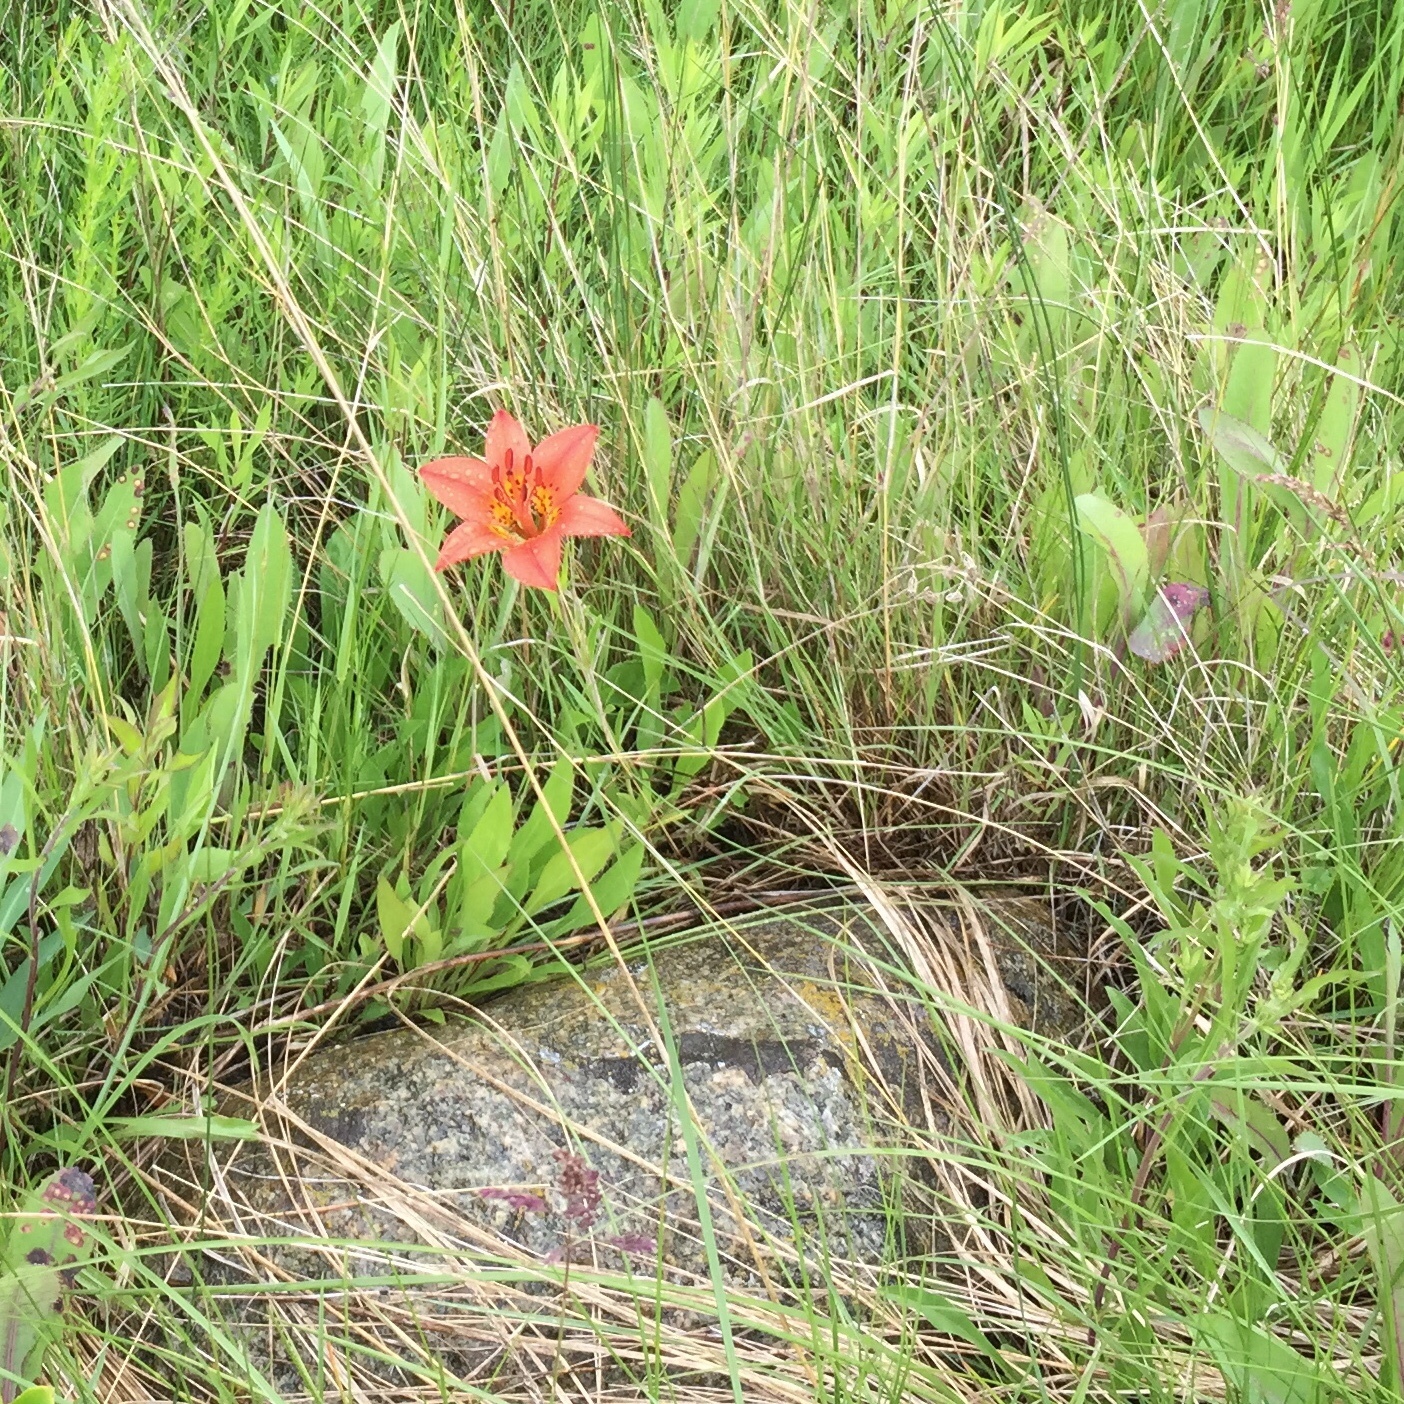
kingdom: Plantae
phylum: Tracheophyta
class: Liliopsida
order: Liliales
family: Liliaceae
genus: Lilium
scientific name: Lilium philadelphicum
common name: Red lily
